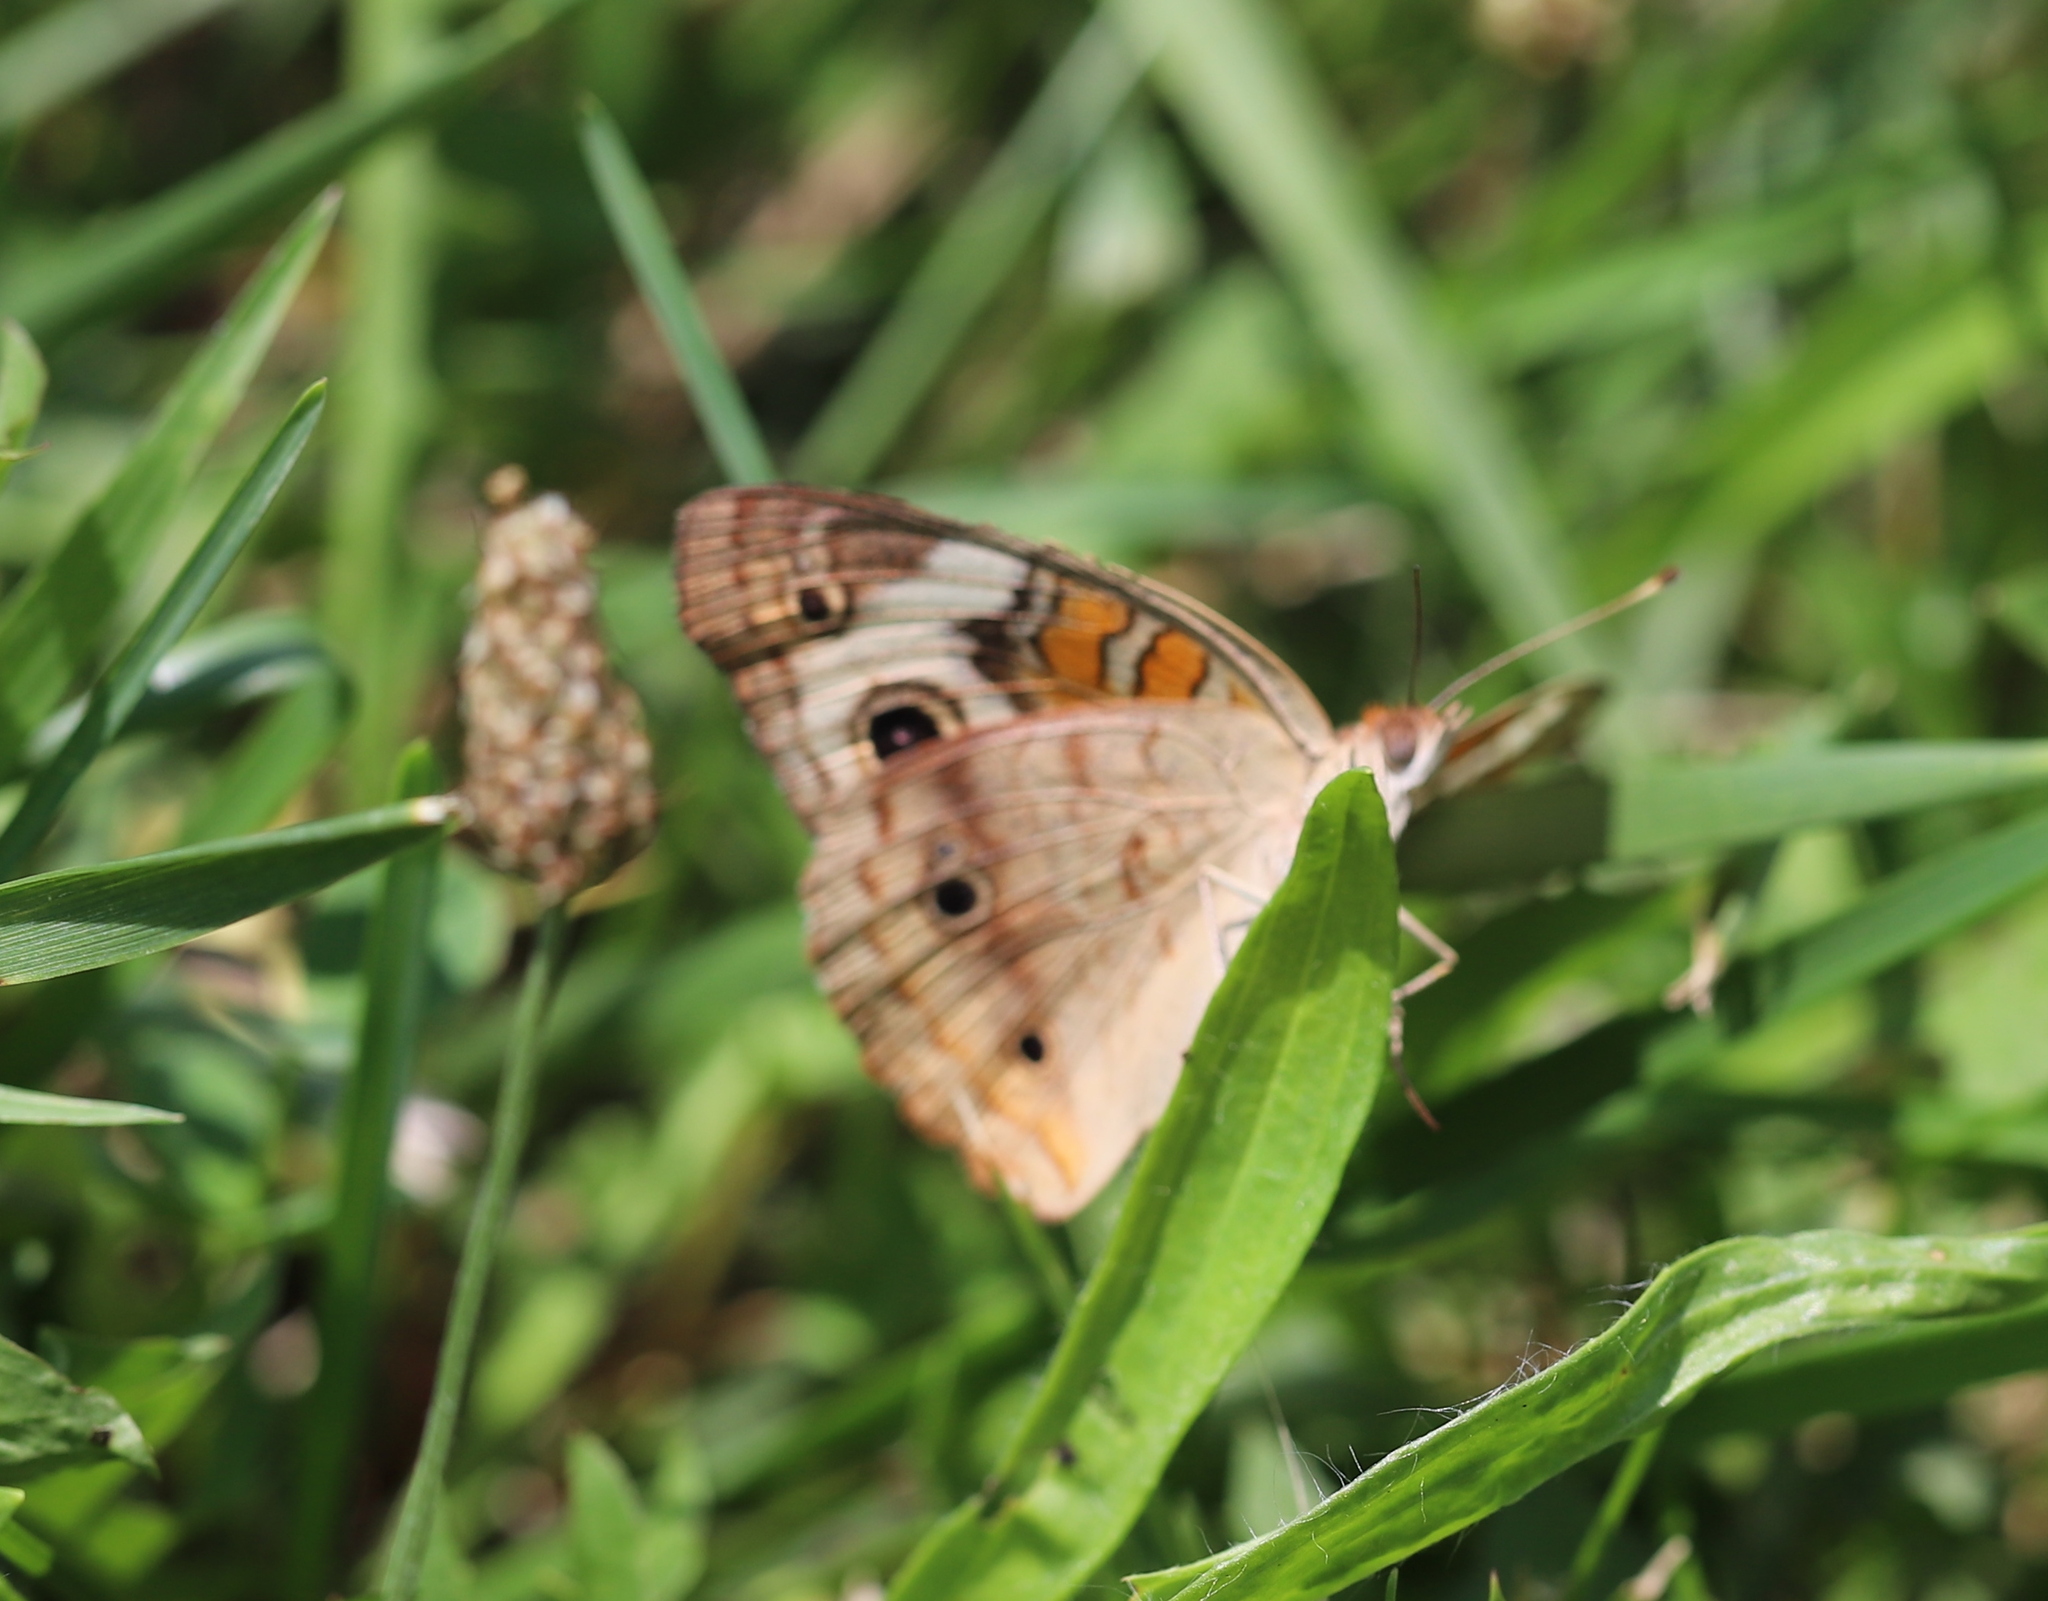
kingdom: Animalia
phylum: Arthropoda
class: Insecta
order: Lepidoptera
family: Nymphalidae
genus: Junonia
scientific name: Junonia coenia
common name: Common buckeye
